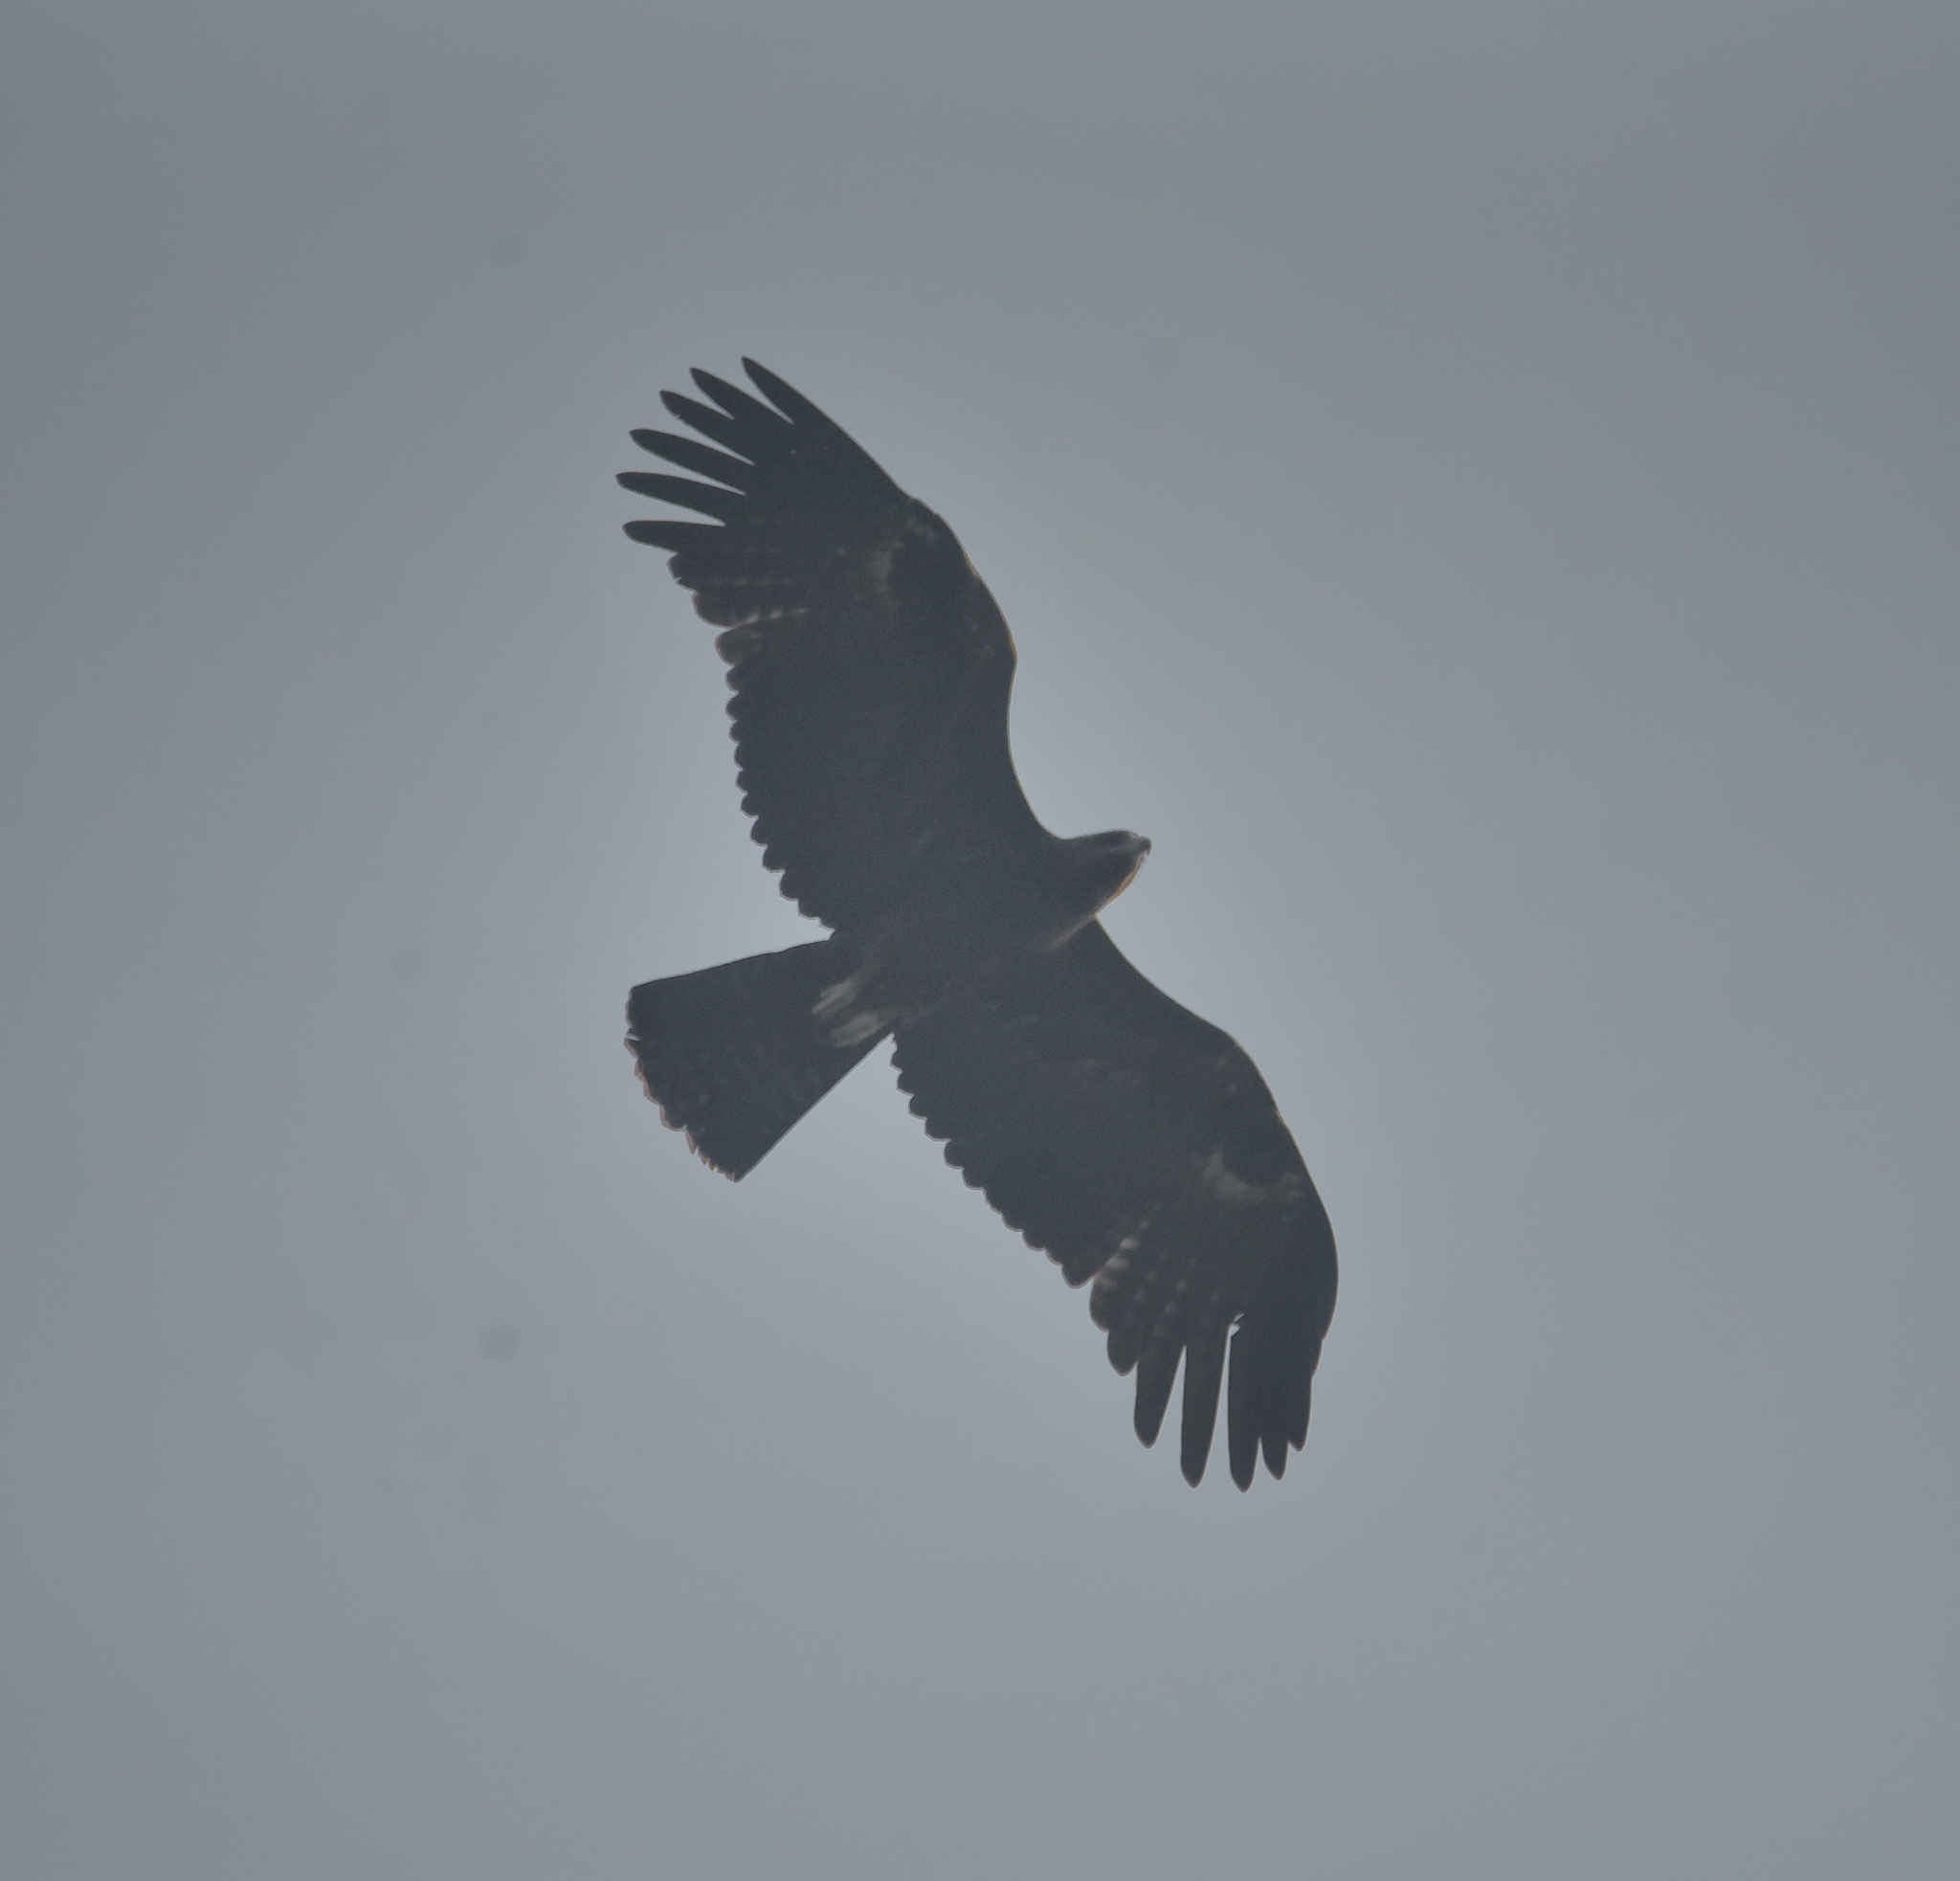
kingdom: Animalia
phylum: Chordata
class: Aves
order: Accipitriformes
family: Accipitridae
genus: Ictinaetus
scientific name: Ictinaetus malayensis
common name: Black eagle
